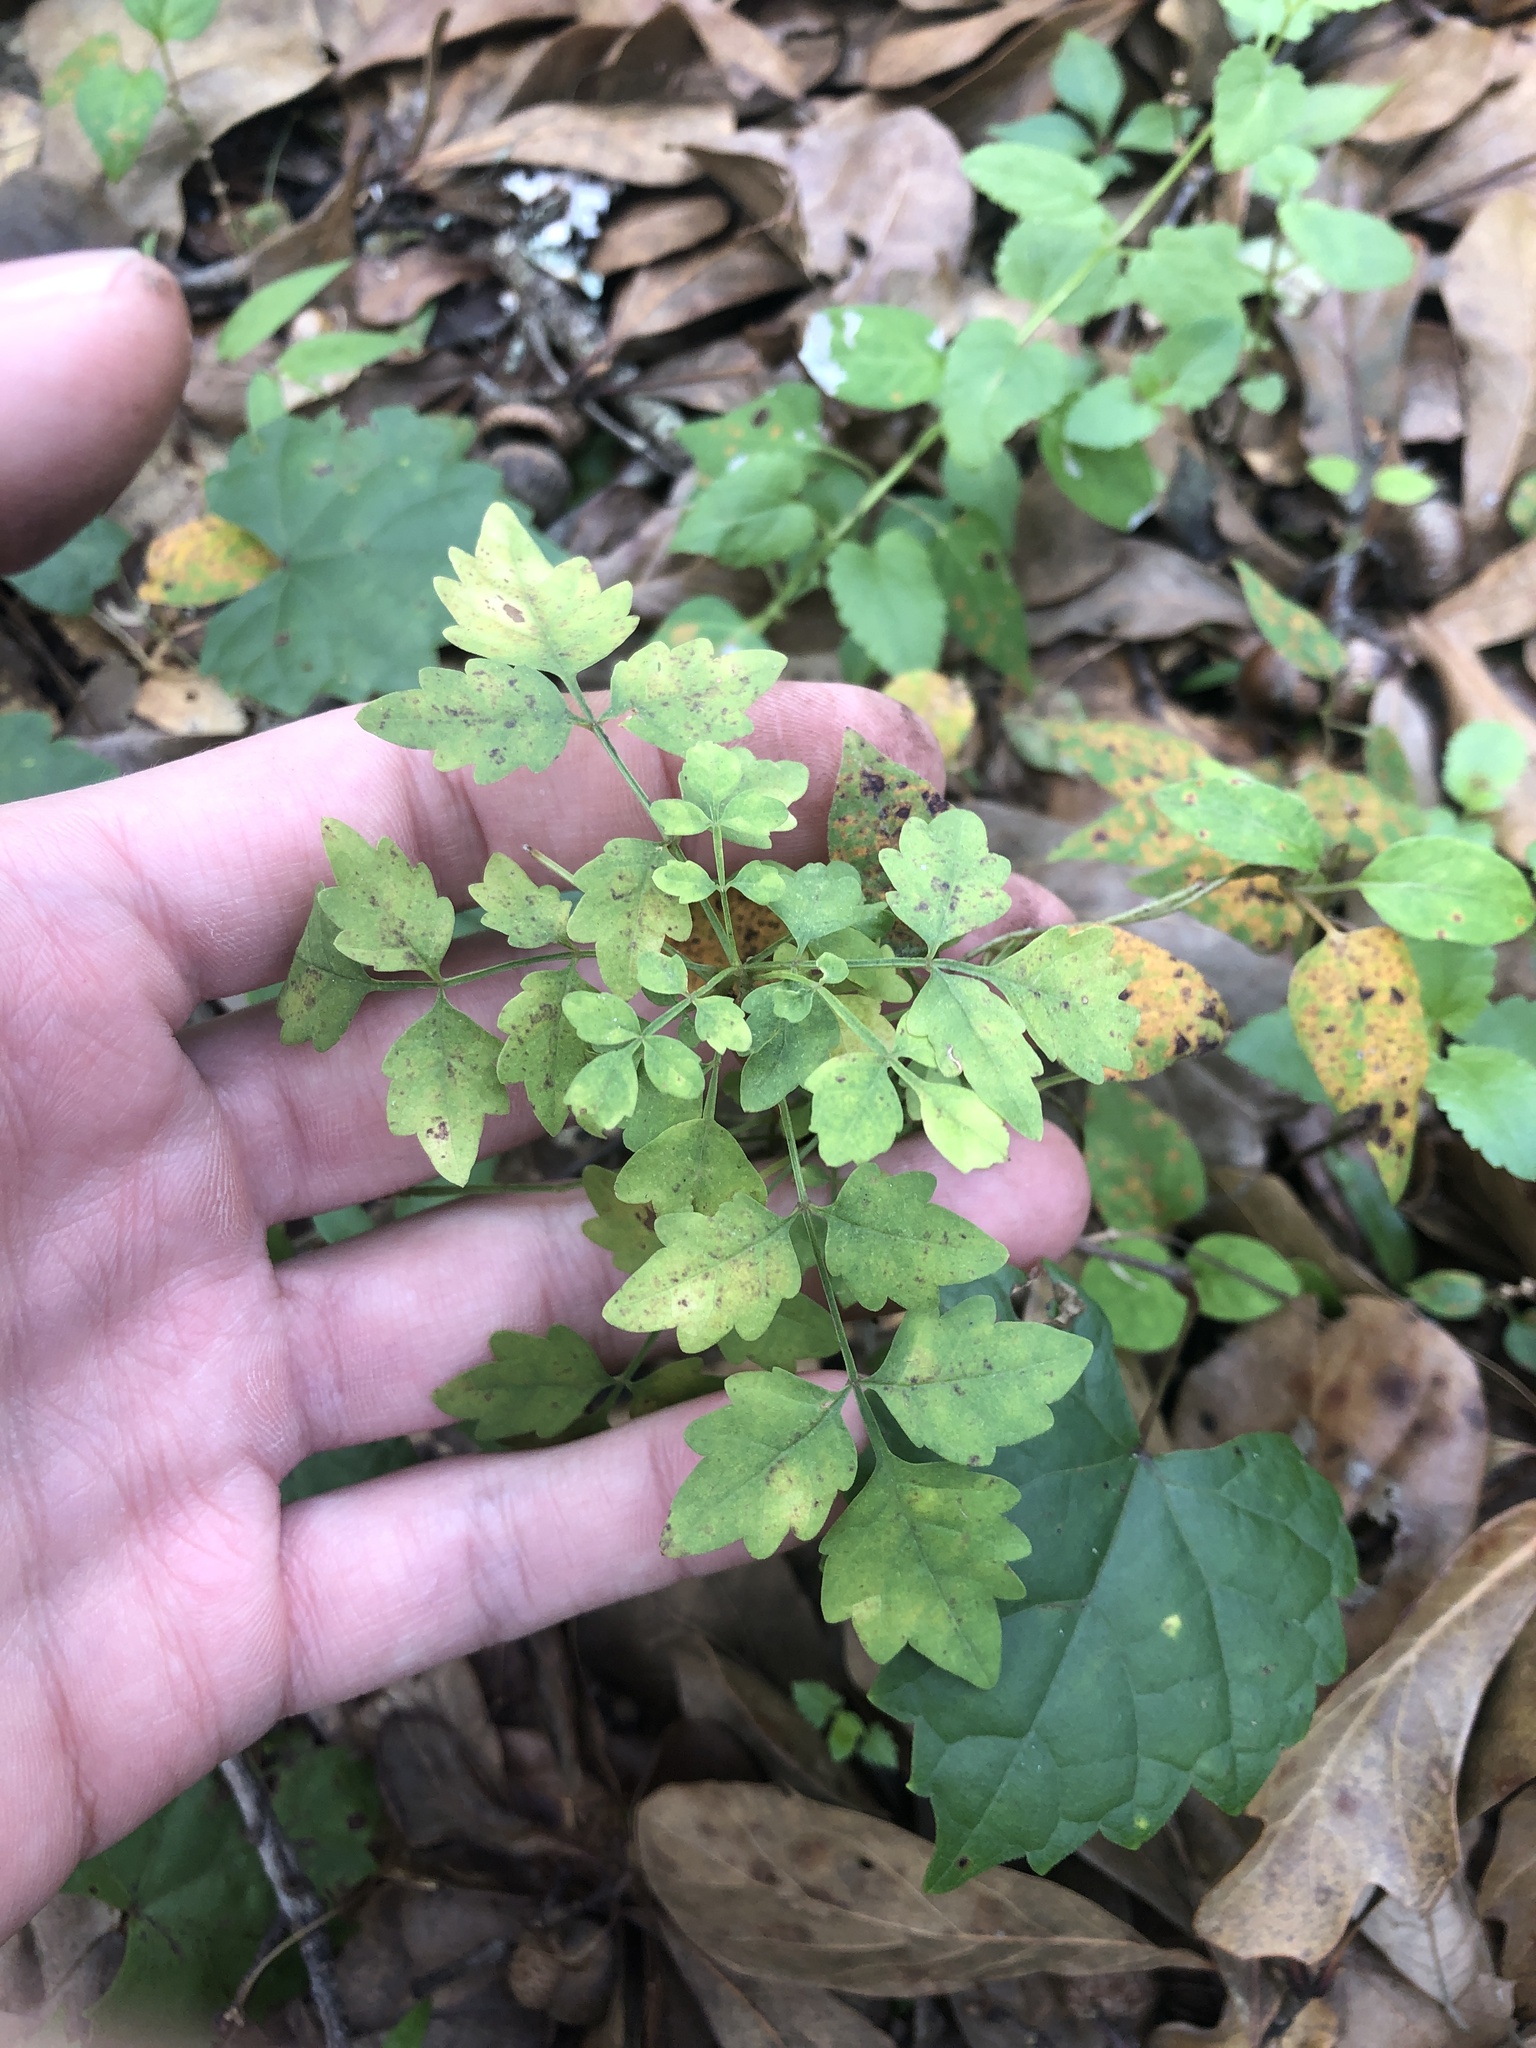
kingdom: Plantae
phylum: Tracheophyta
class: Magnoliopsida
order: Lamiales
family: Bignoniaceae
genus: Campsis
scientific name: Campsis radicans
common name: Trumpet-creeper
